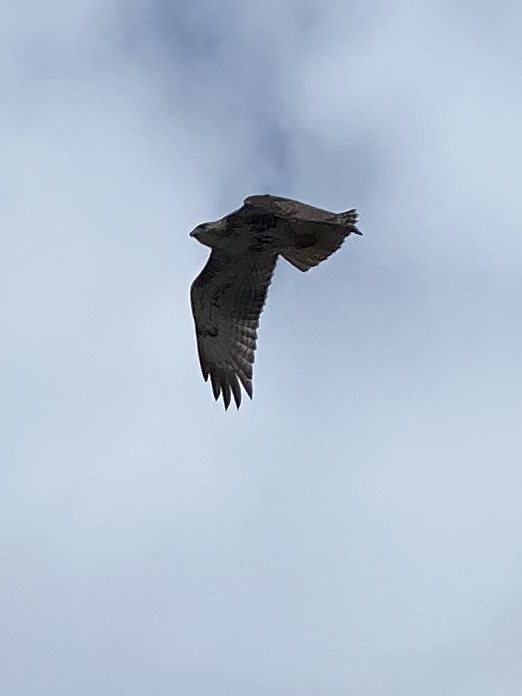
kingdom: Animalia
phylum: Chordata
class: Aves
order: Accipitriformes
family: Accipitridae
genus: Buteo
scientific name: Buteo jamaicensis
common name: Red-tailed hawk
